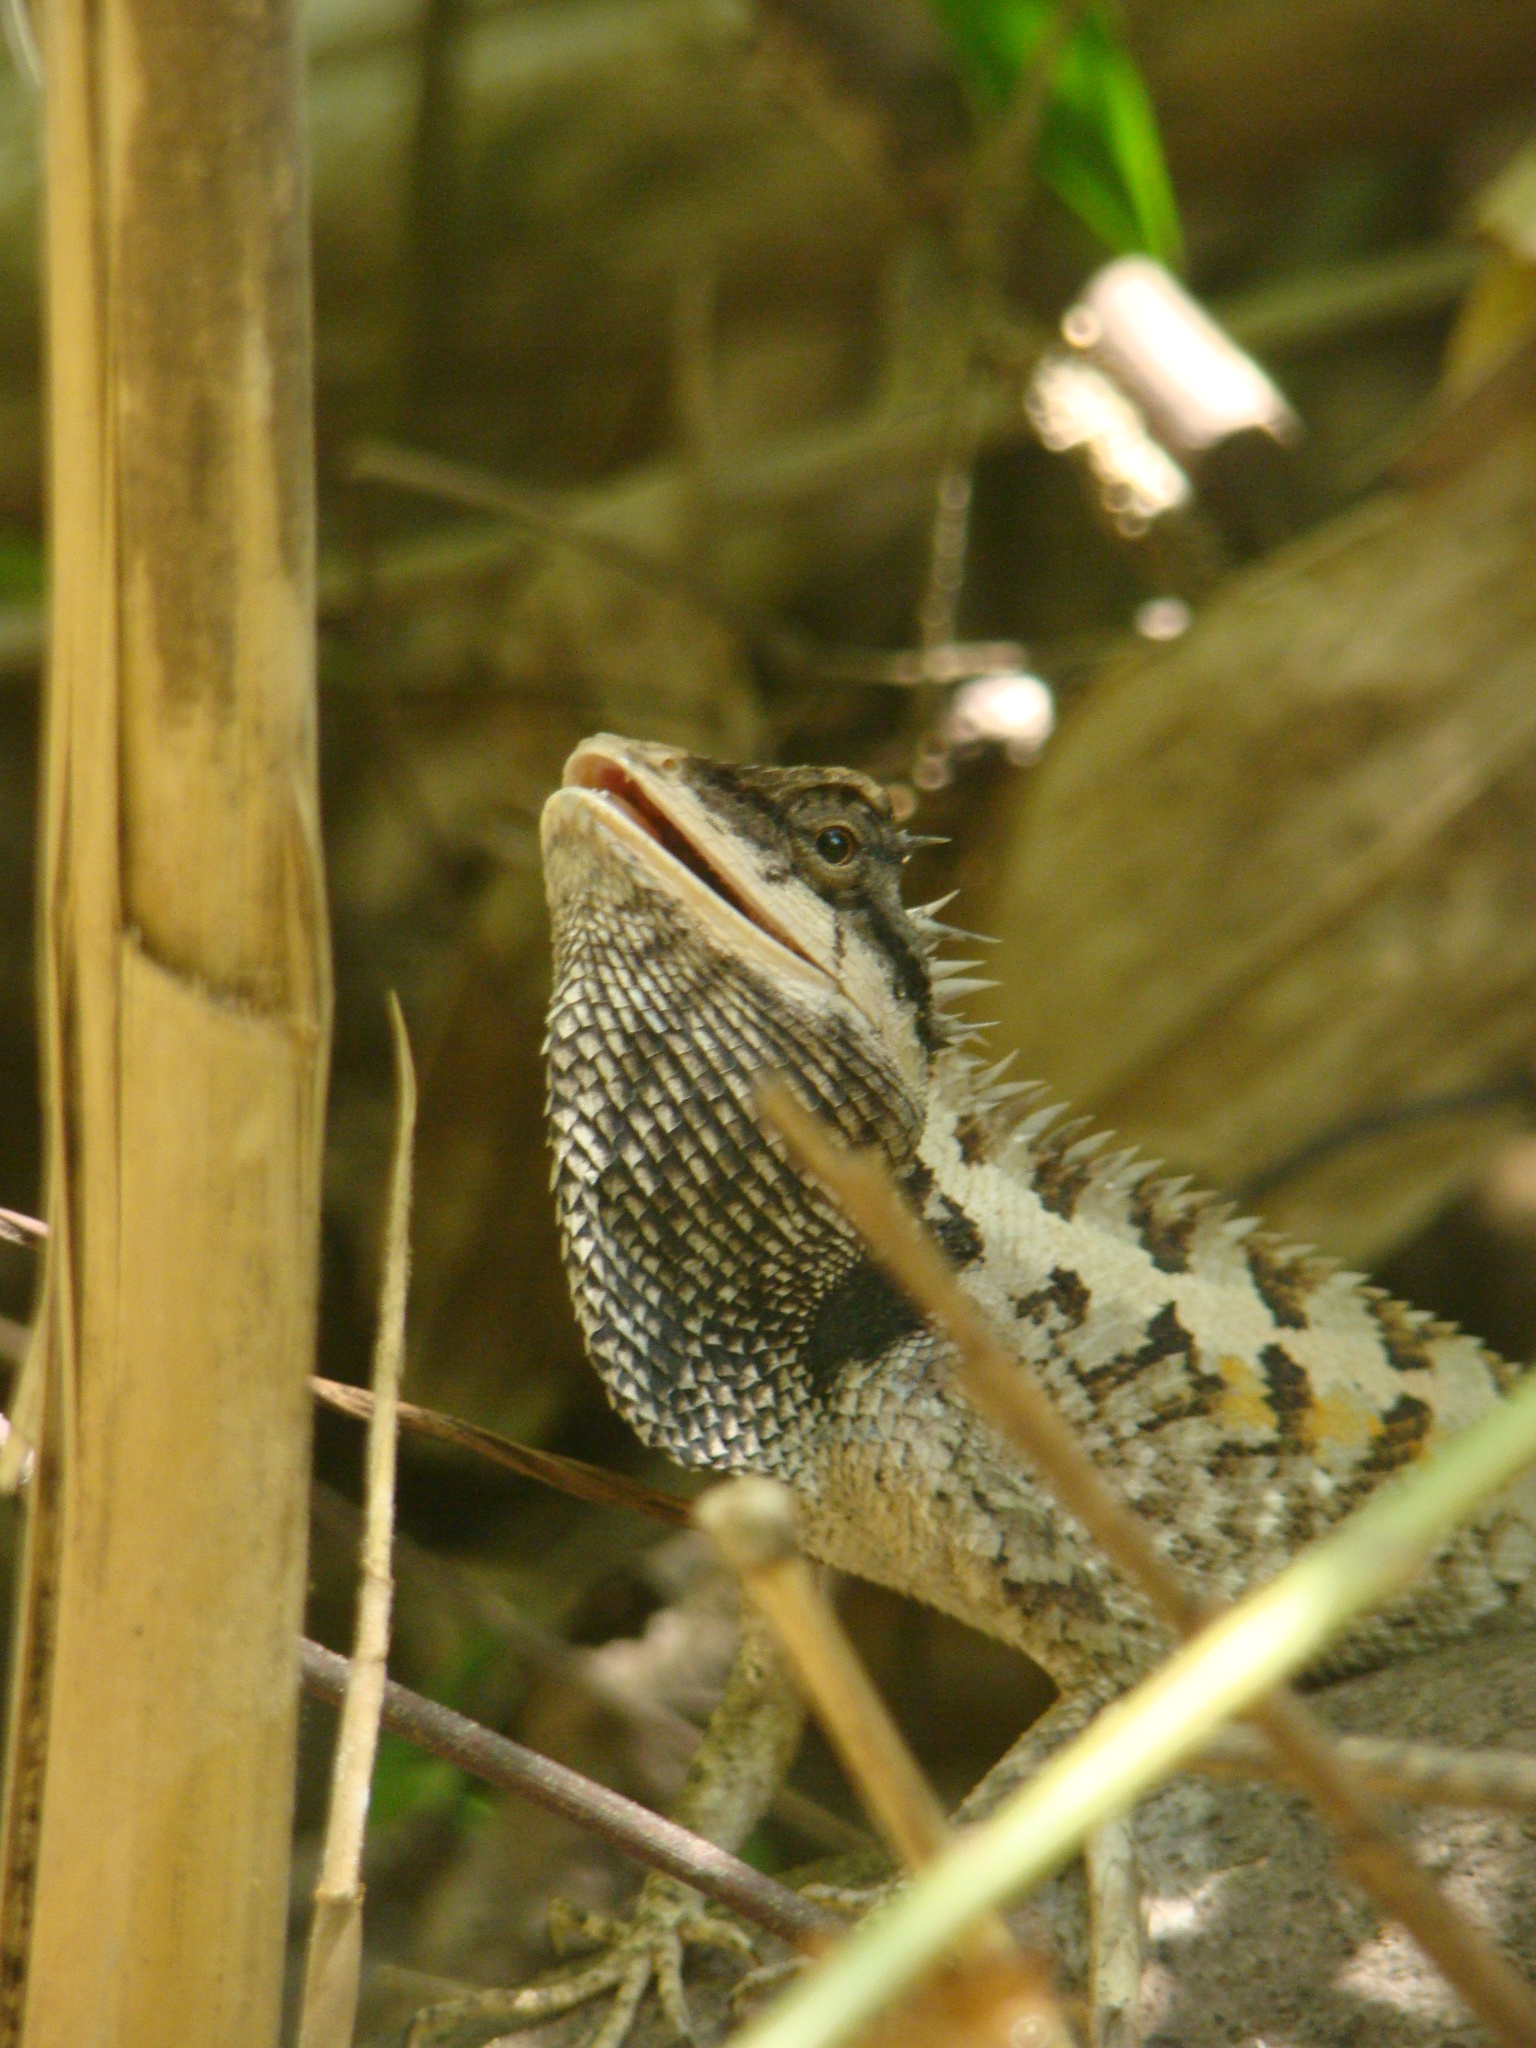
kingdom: Animalia
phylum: Chordata
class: Squamata
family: Agamidae
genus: Calotes
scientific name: Calotes emma
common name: Thailand bloodsucker
